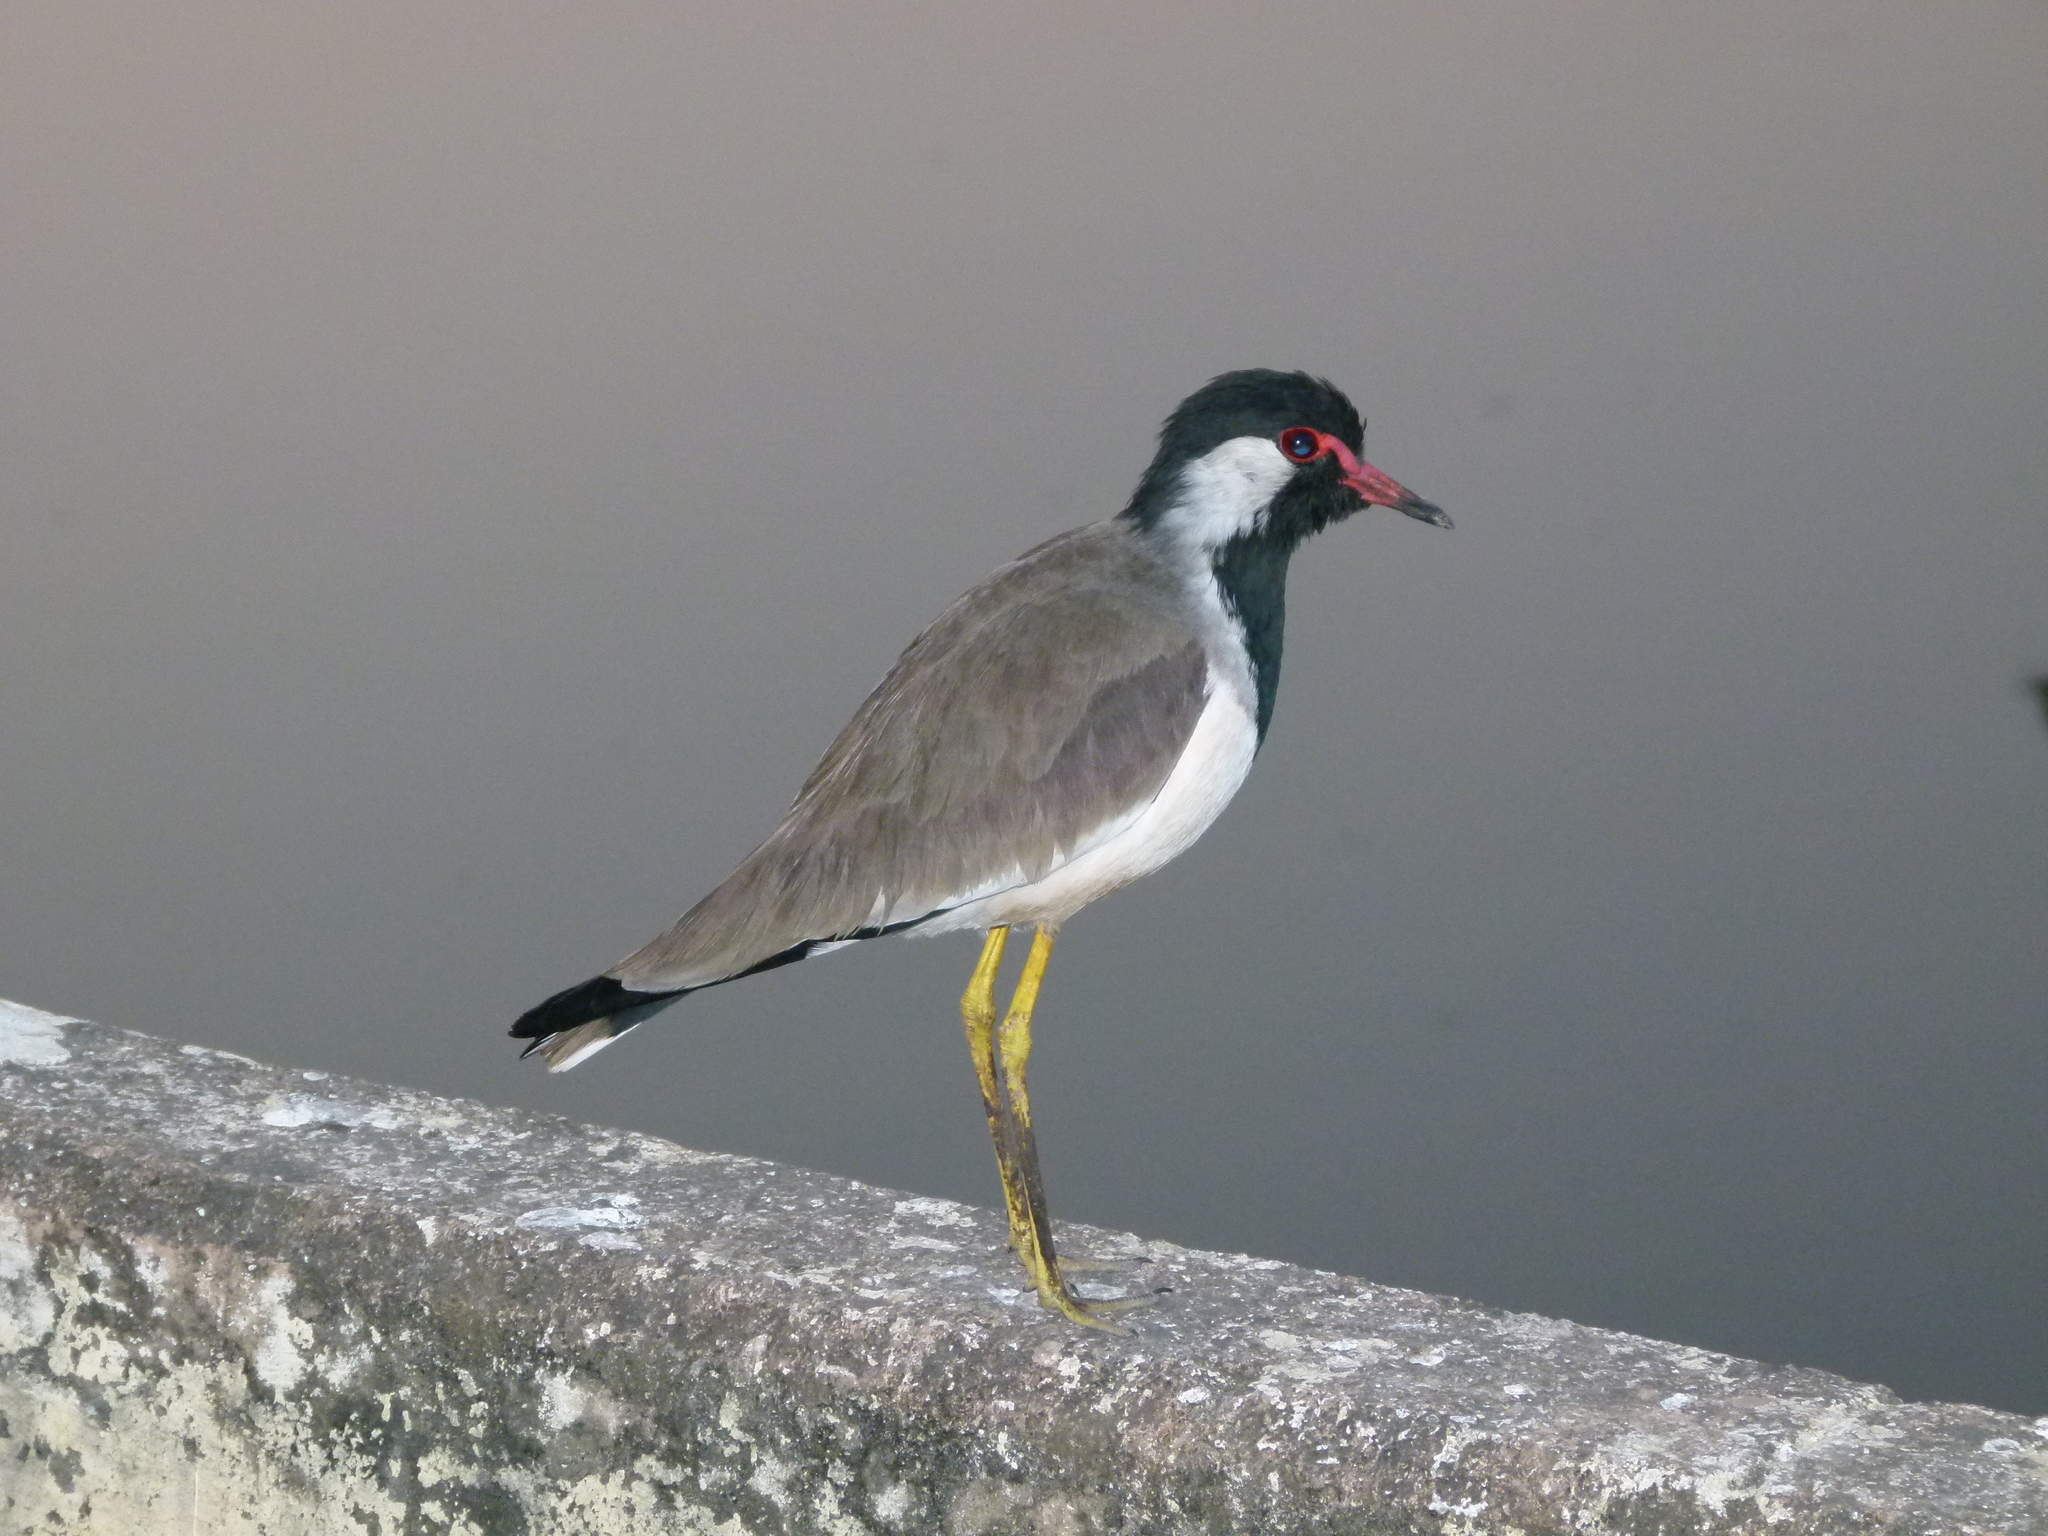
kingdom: Animalia
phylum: Chordata
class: Aves
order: Charadriiformes
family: Charadriidae
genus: Vanellus
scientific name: Vanellus indicus
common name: Red-wattled lapwing
